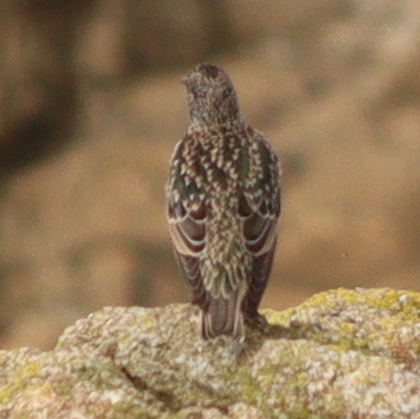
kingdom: Animalia
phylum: Chordata
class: Aves
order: Passeriformes
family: Sturnidae
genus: Sturnus
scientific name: Sturnus vulgaris
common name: Common starling
